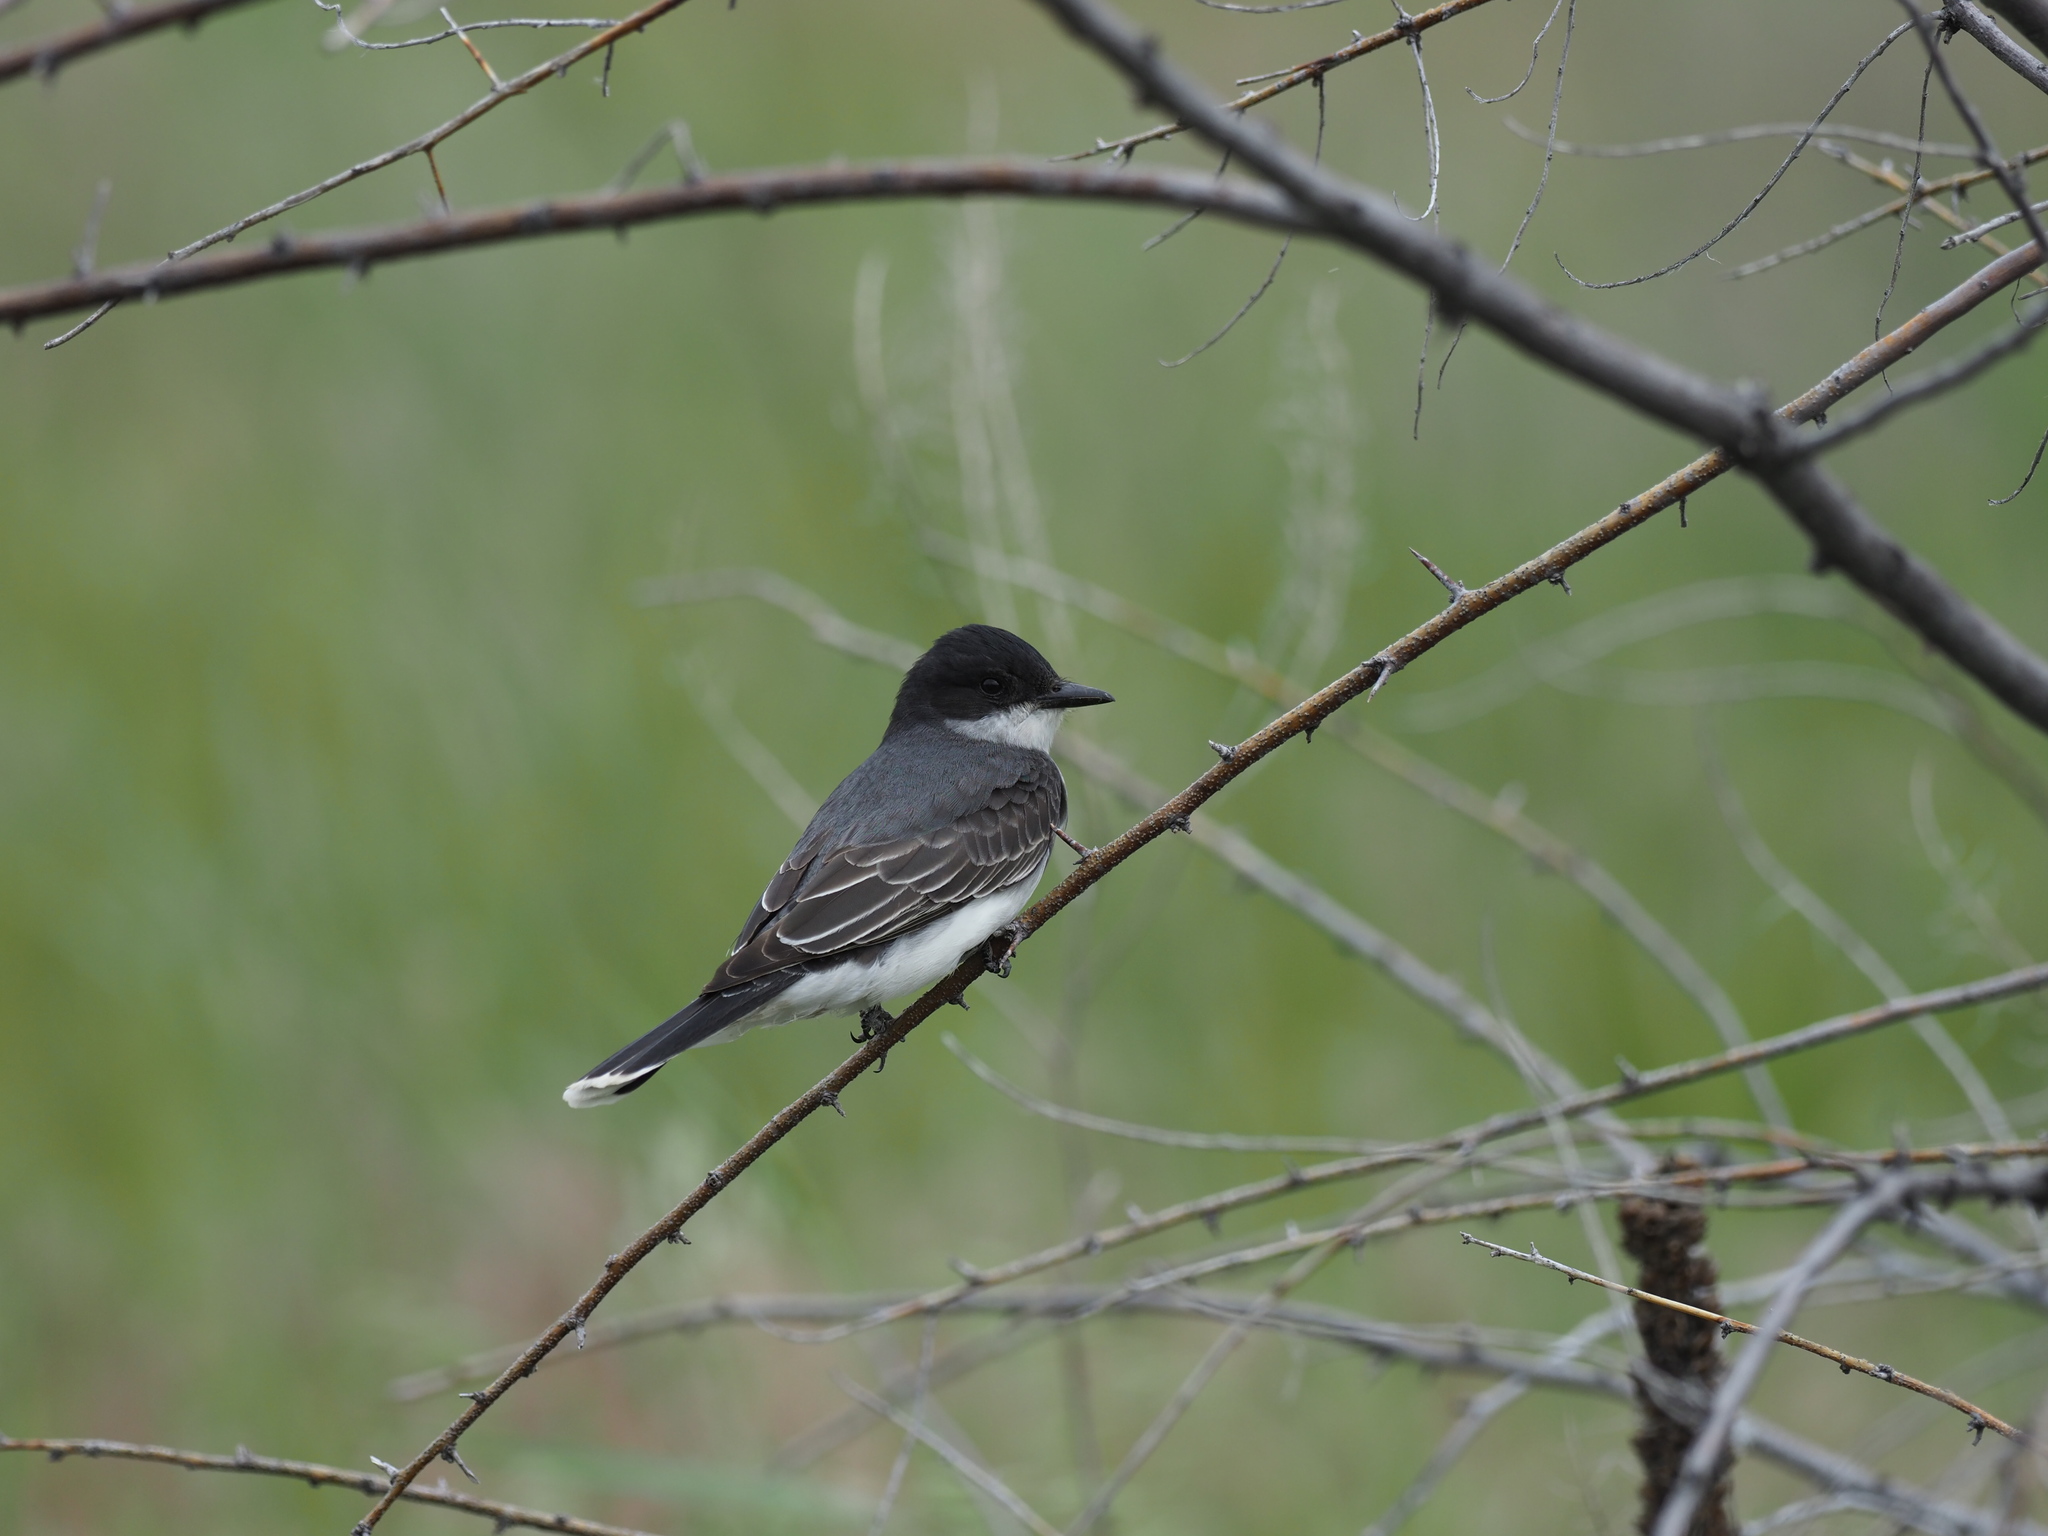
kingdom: Animalia
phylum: Chordata
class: Aves
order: Passeriformes
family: Tyrannidae
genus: Tyrannus
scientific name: Tyrannus tyrannus
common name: Eastern kingbird
